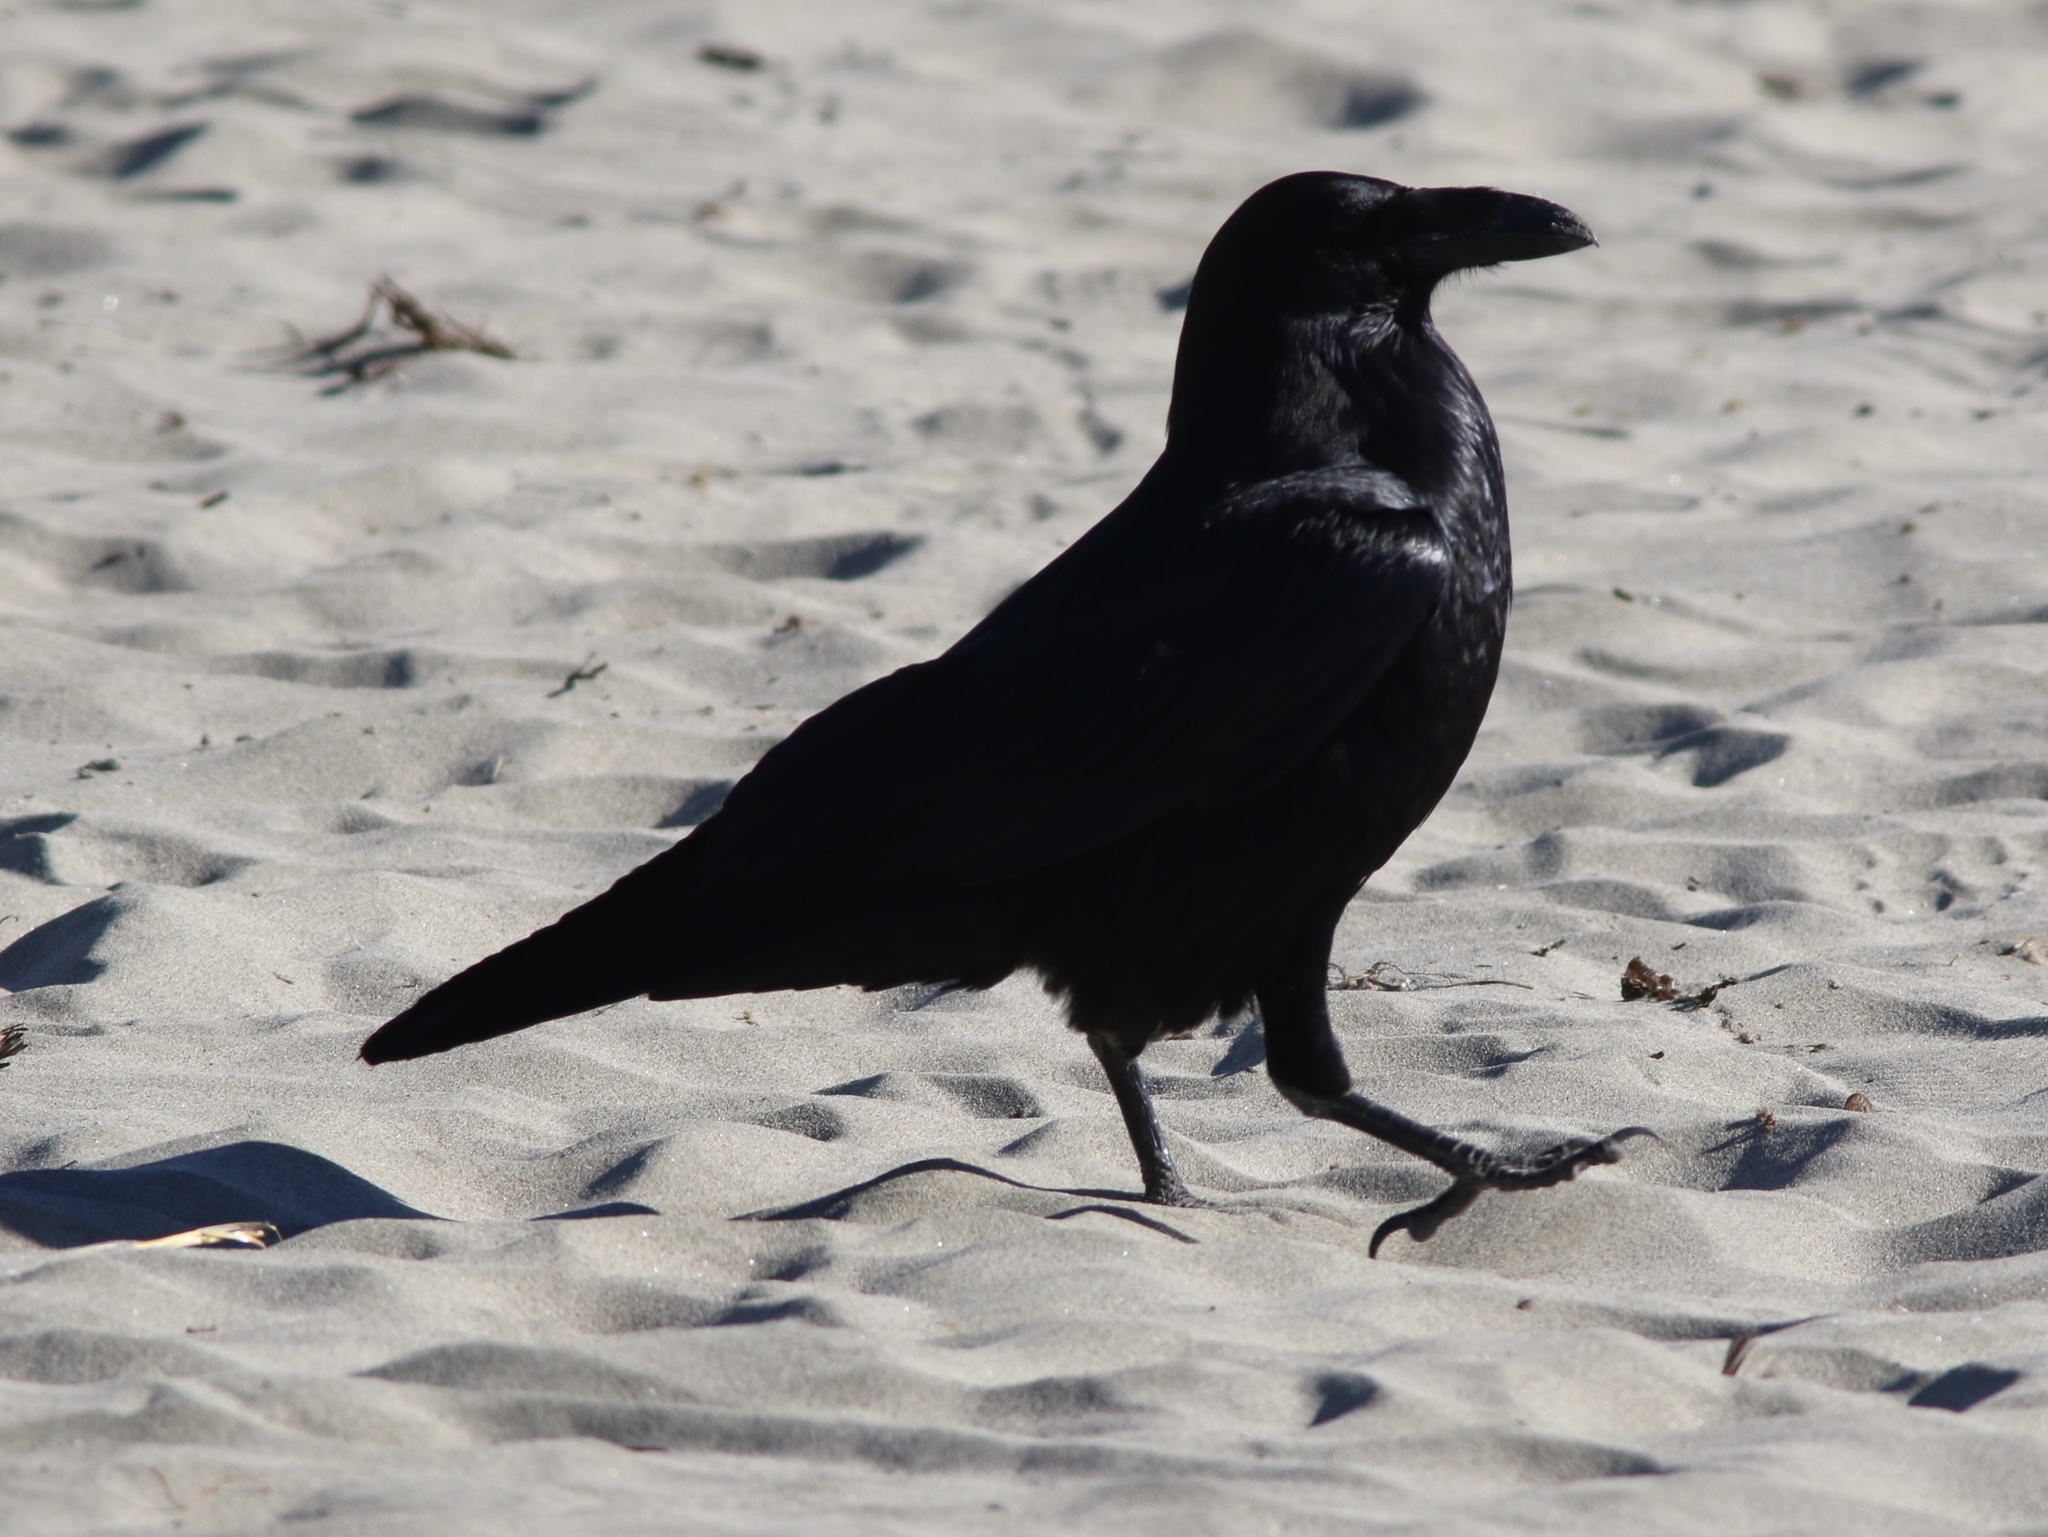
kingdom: Animalia
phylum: Chordata
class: Aves
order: Passeriformes
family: Corvidae
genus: Corvus
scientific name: Corvus corax
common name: Common raven
